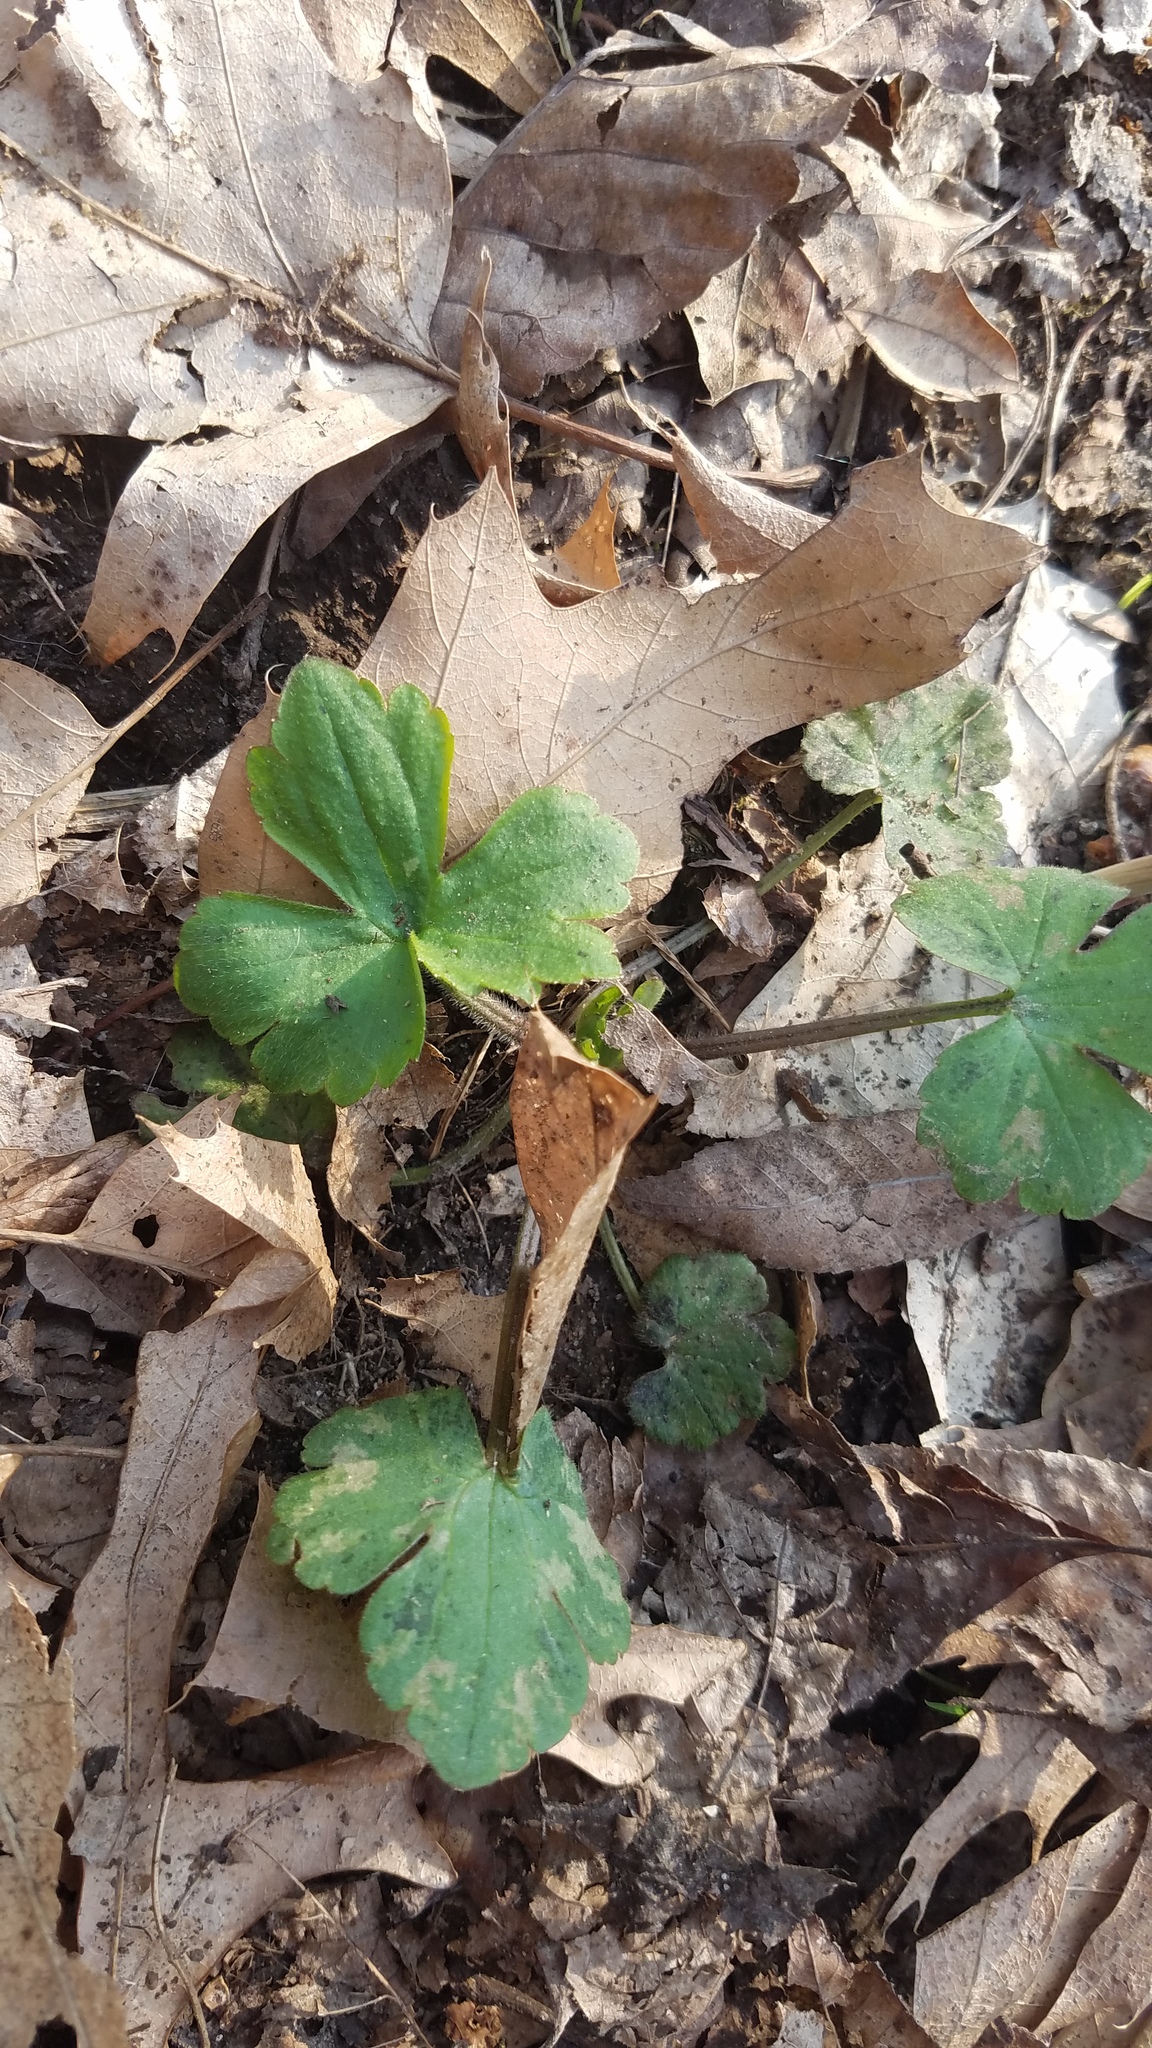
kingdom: Plantae
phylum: Tracheophyta
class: Magnoliopsida
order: Ranunculales
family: Ranunculaceae
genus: Ranunculus
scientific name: Ranunculus recurvatus
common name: Blisterwort
